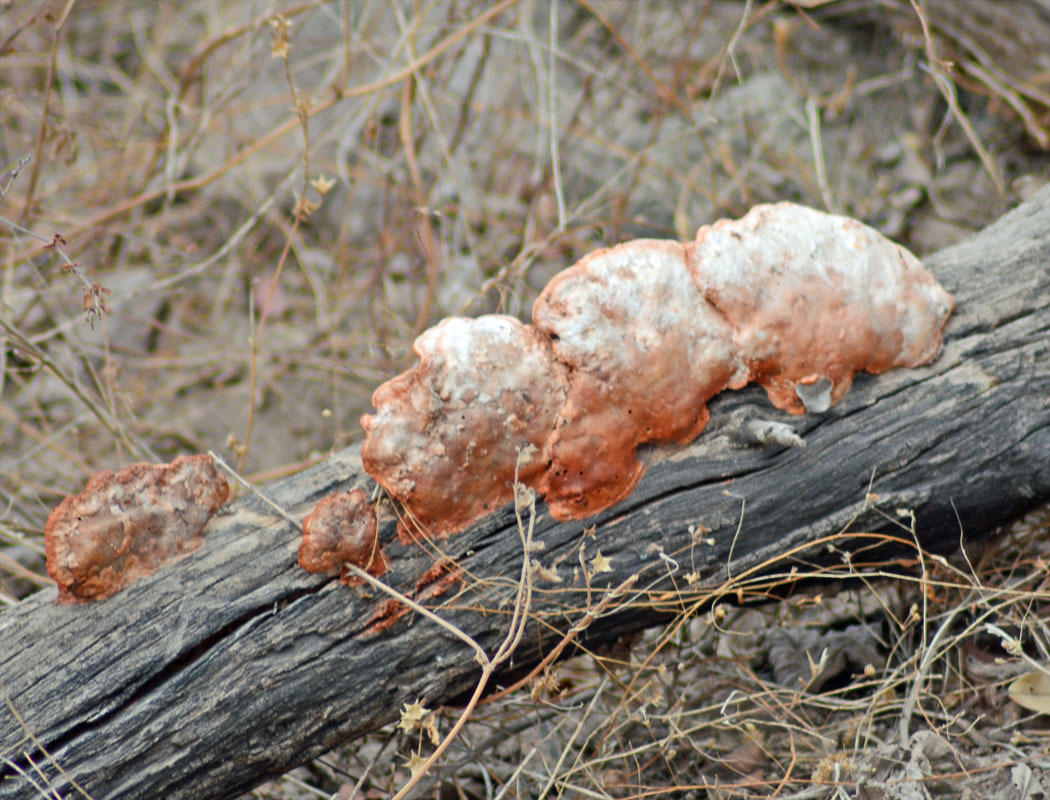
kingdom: Fungi
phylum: Basidiomycota
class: Agaricomycetes
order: Polyporales
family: Polyporaceae
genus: Trametes
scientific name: Trametes cinnabarina
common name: Northern cinnabar polypore
